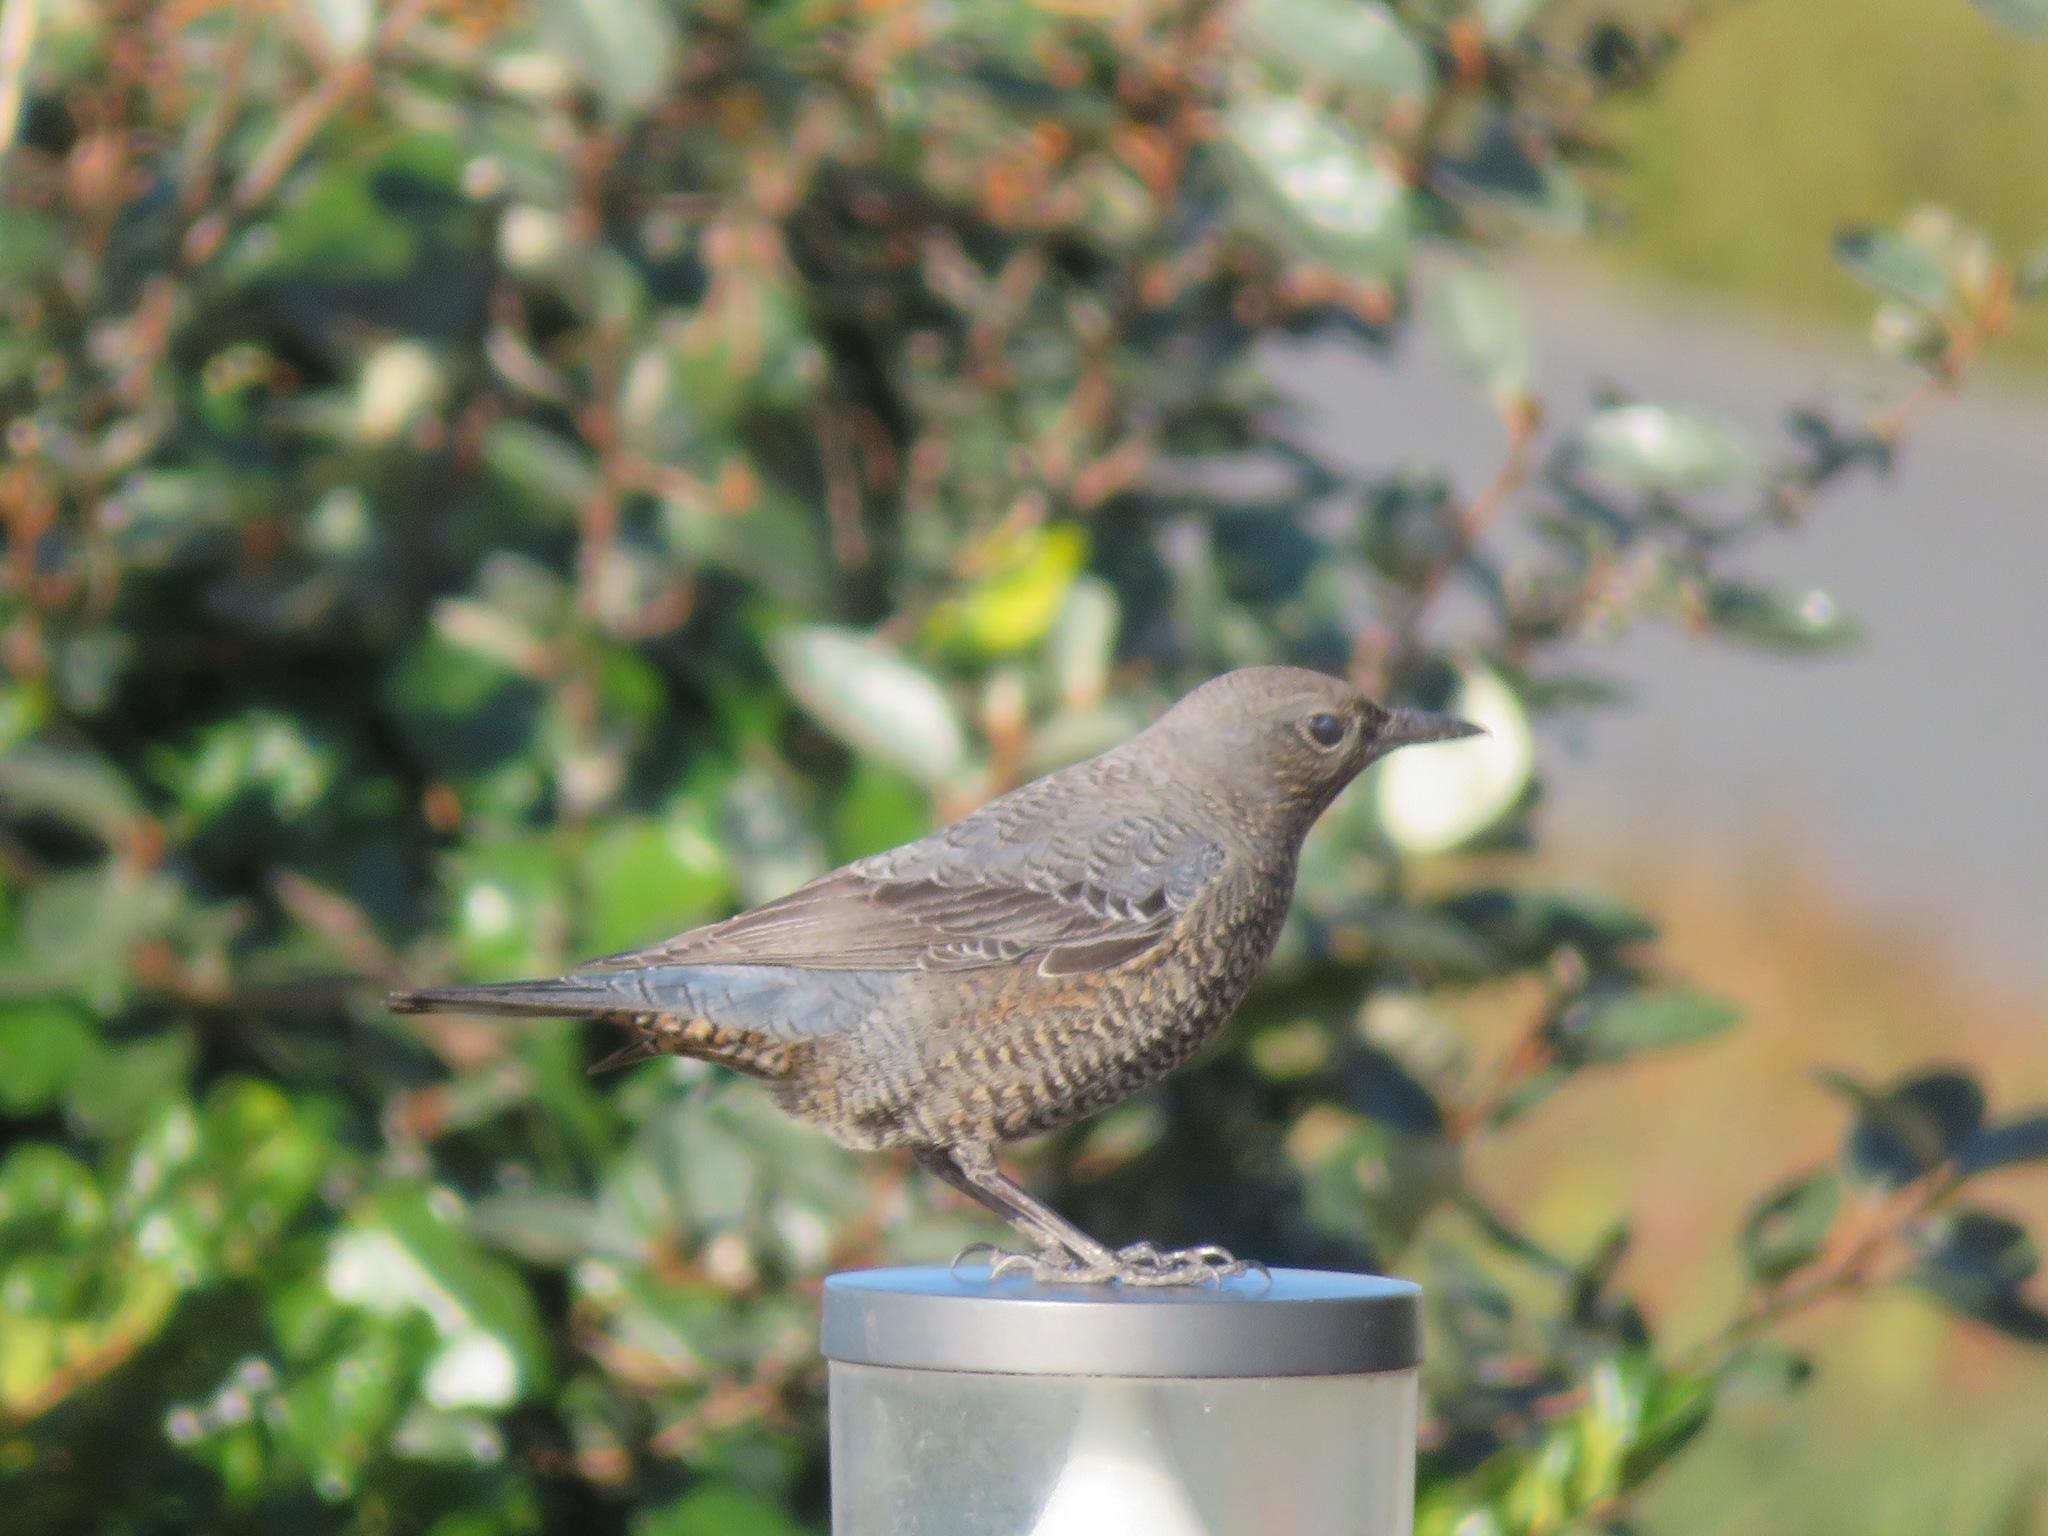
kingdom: Animalia
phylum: Chordata
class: Aves
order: Passeriformes
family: Muscicapidae
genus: Monticola
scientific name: Monticola solitarius
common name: Blue rock thrush
